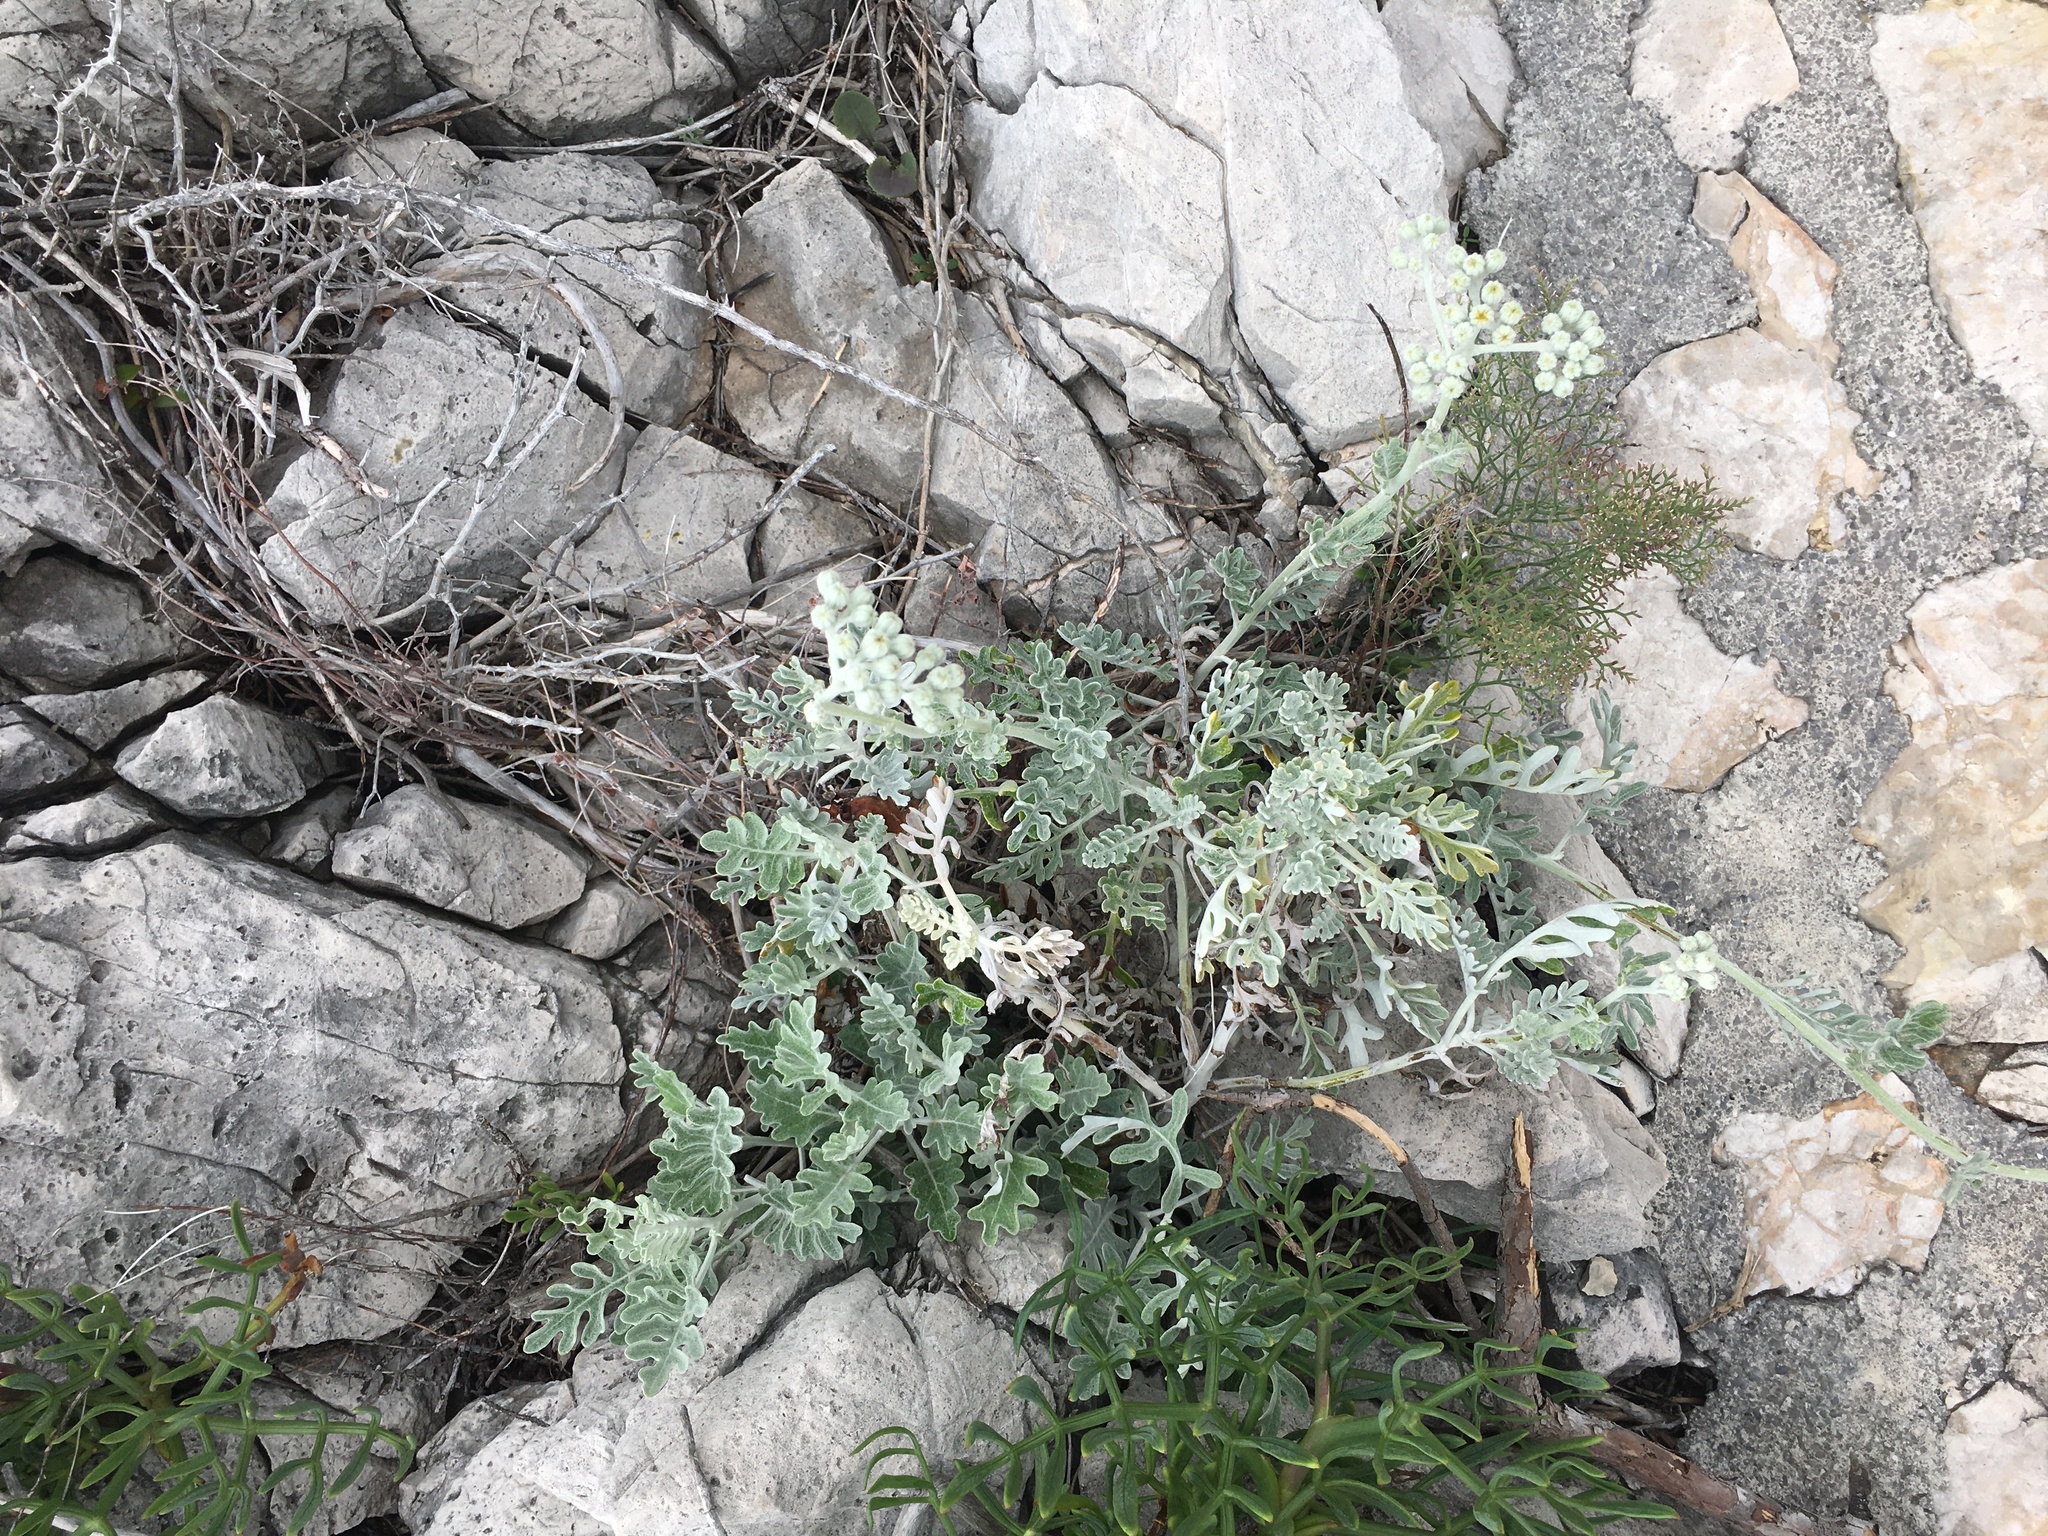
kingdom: Plantae
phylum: Tracheophyta
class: Magnoliopsida
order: Asterales
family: Asteraceae
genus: Jacobaea
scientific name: Jacobaea maritima
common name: Silver ragwort
